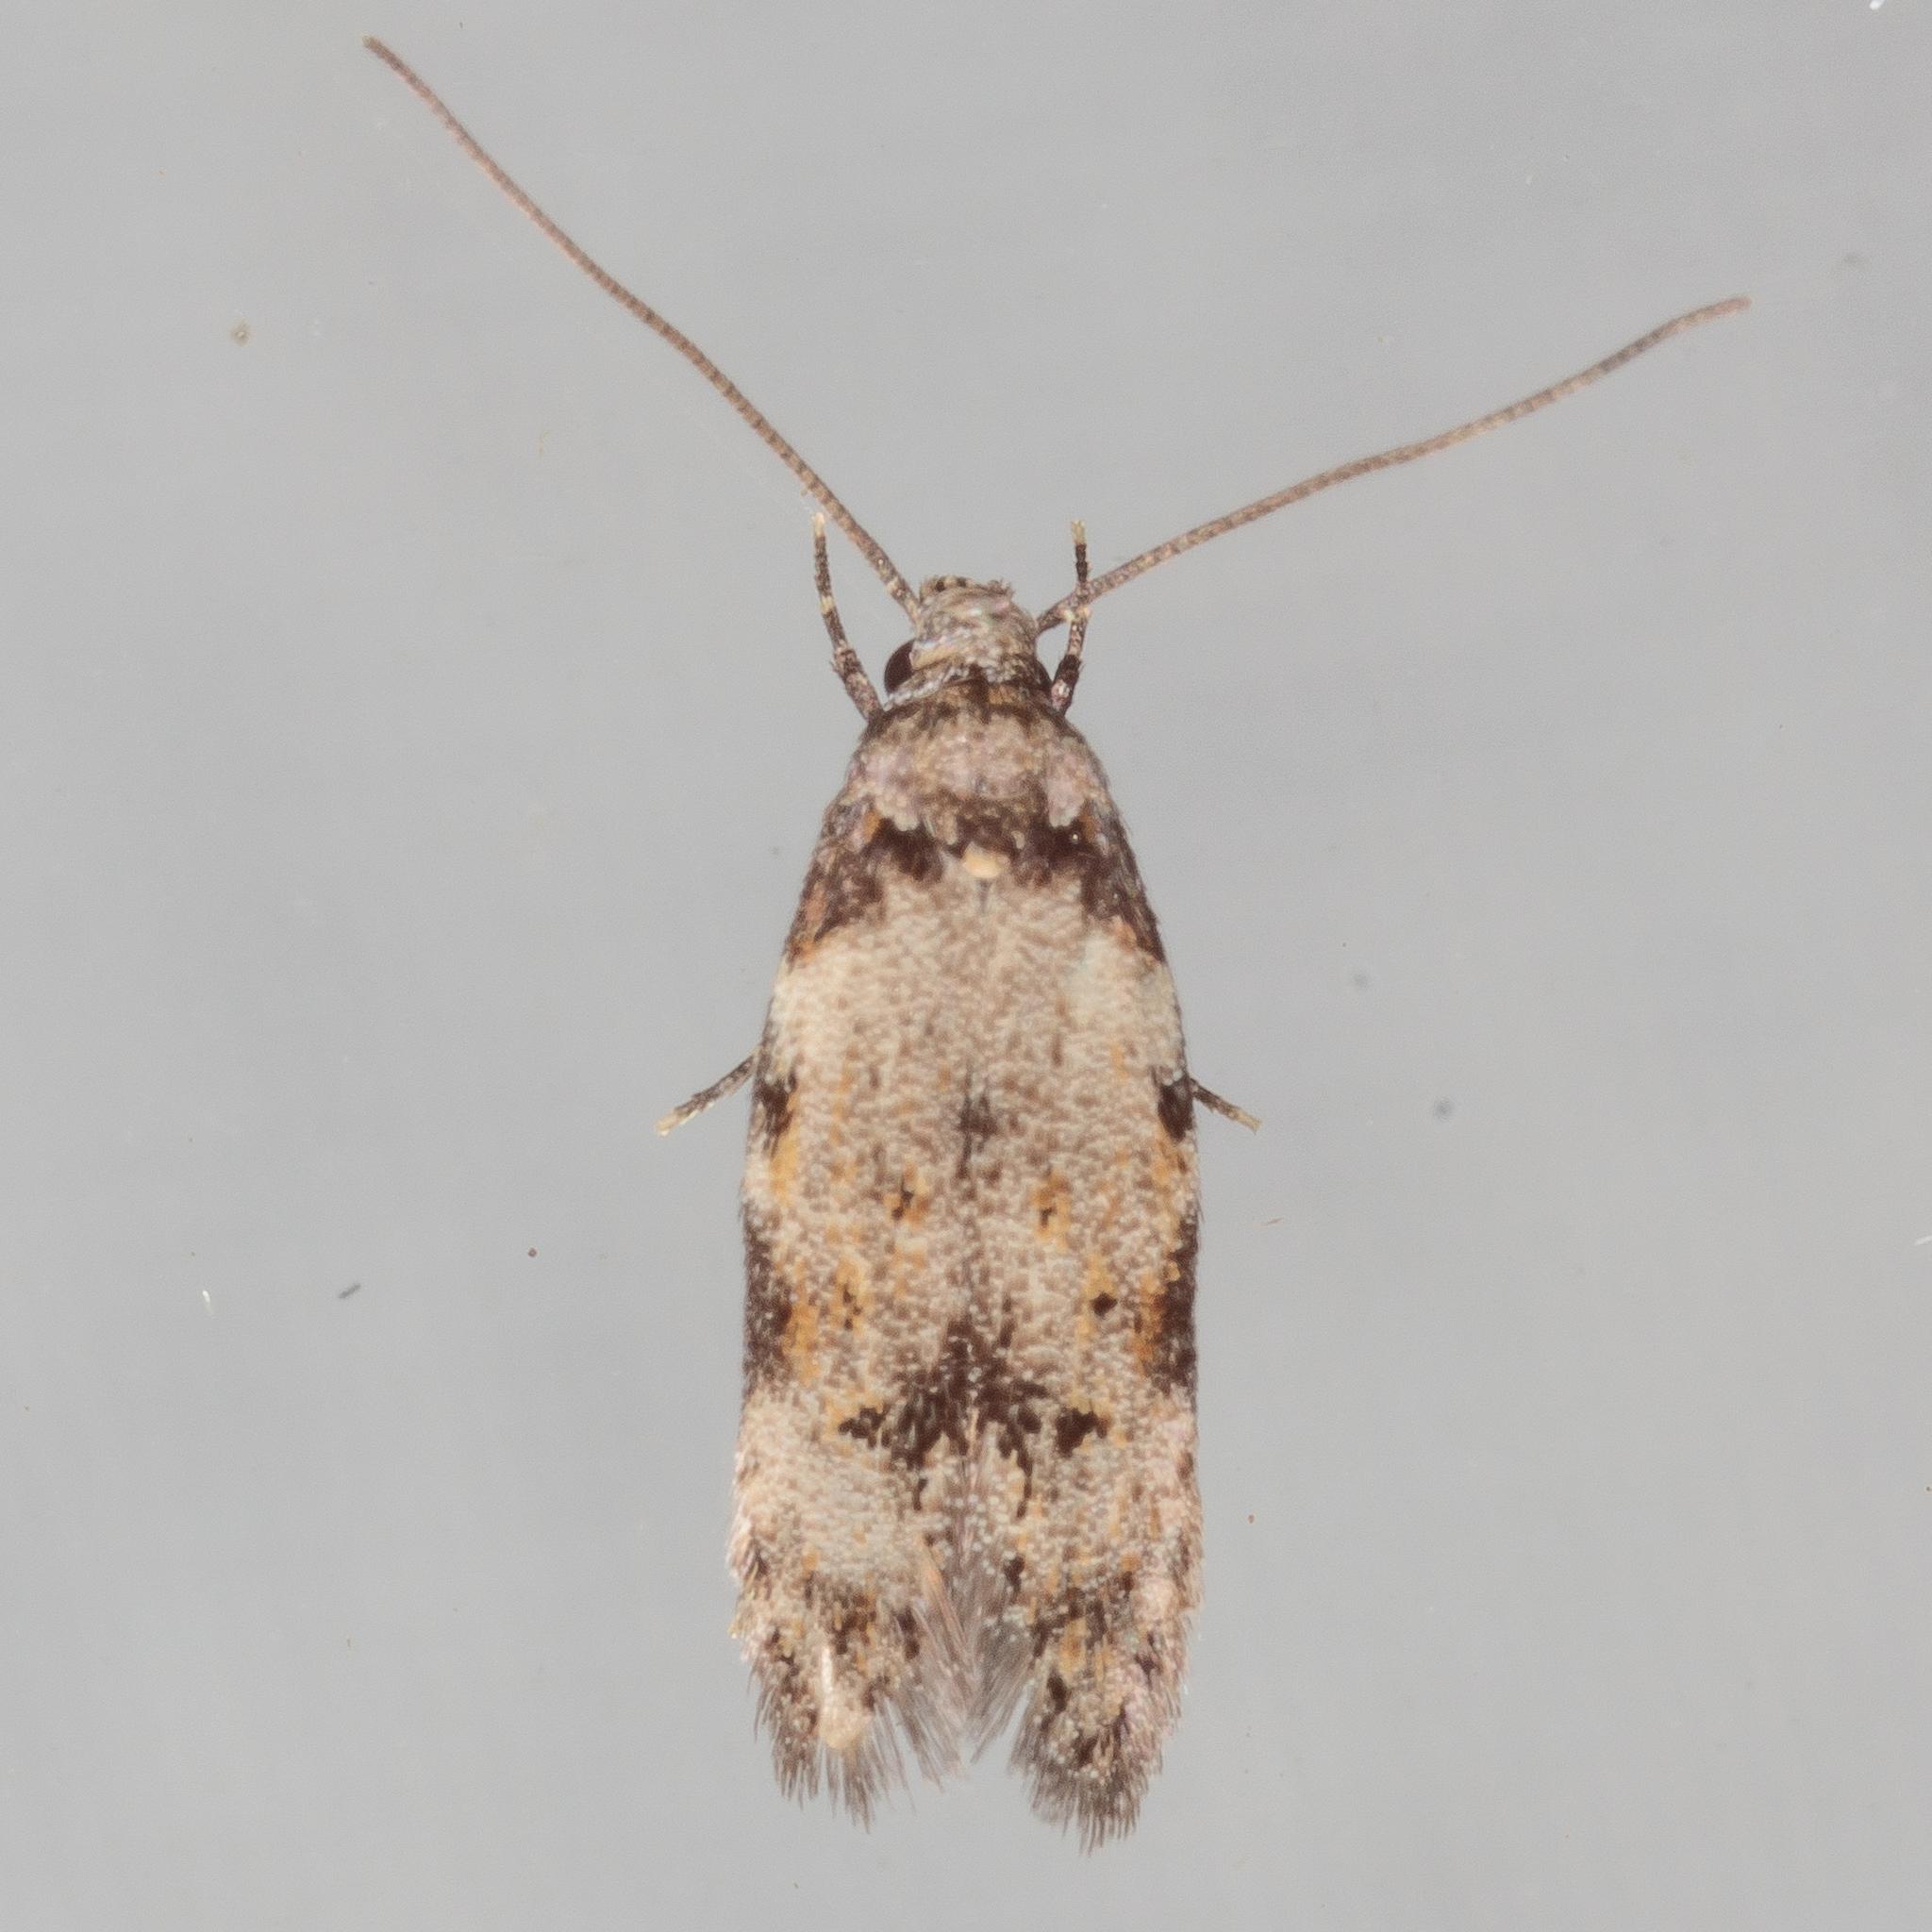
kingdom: Animalia
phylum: Arthropoda
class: Insecta
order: Lepidoptera
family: Autostichidae
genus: Taygete
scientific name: Taygete attributella
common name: Triangle-marked twirler moth
